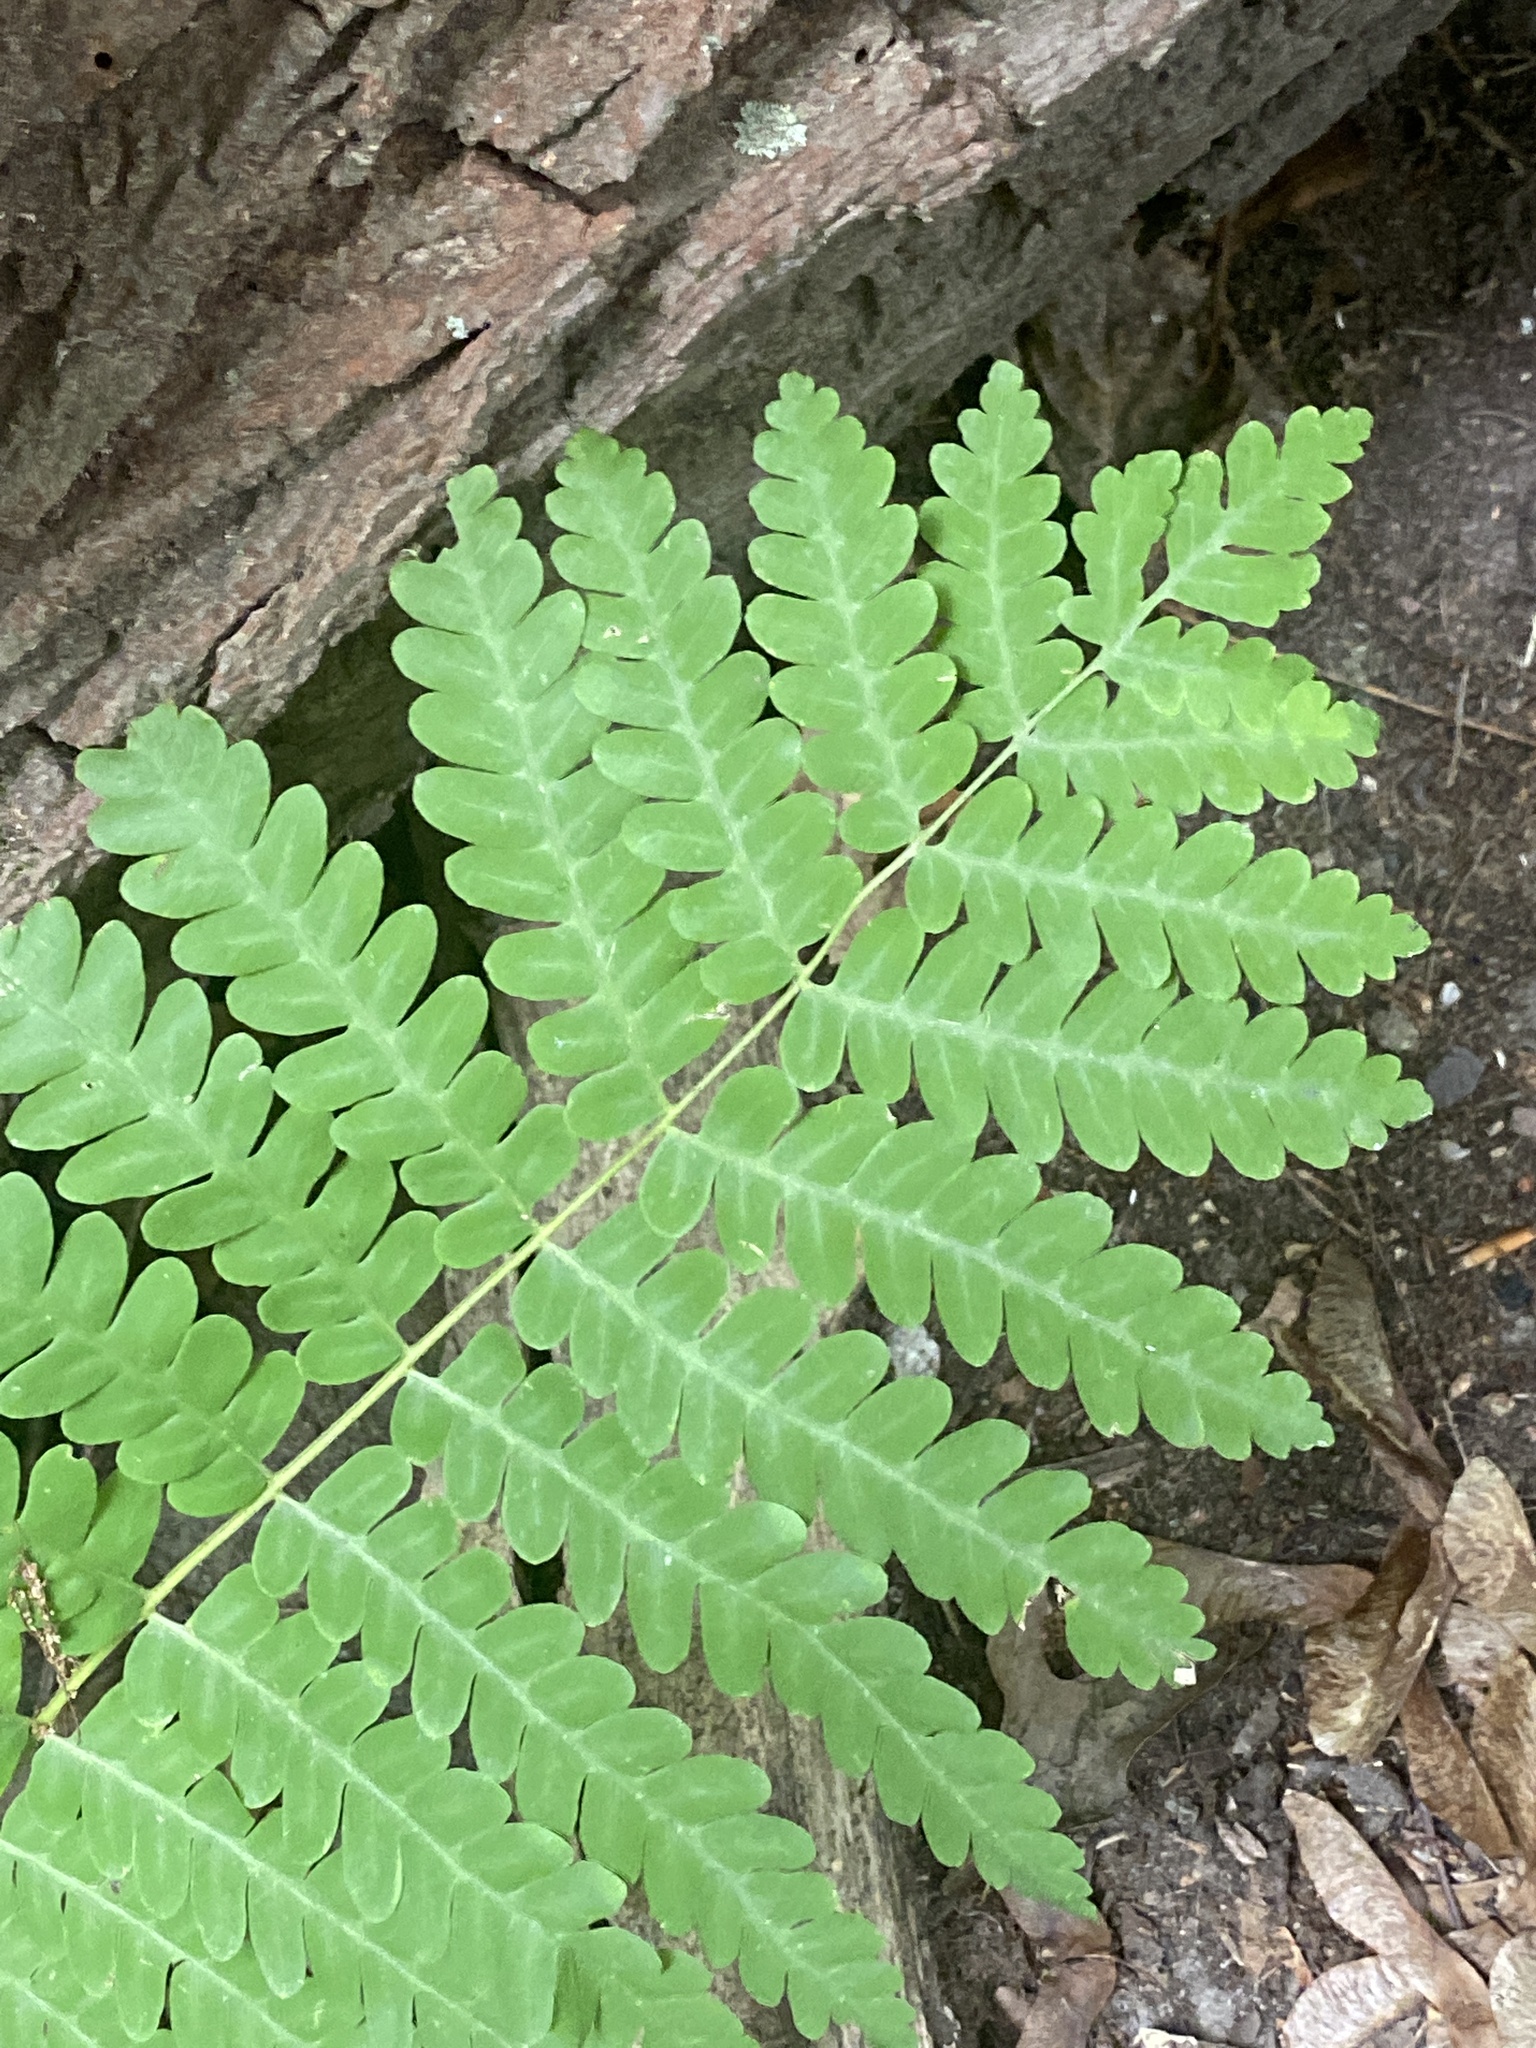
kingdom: Plantae
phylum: Tracheophyta
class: Polypodiopsida
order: Osmundales
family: Osmundaceae
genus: Claytosmunda
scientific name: Claytosmunda claytoniana
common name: Clayton's fern
